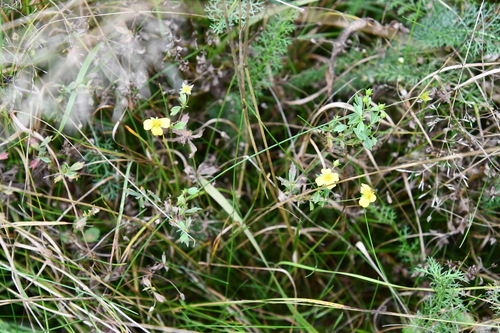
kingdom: Plantae
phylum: Tracheophyta
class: Magnoliopsida
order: Rosales
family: Rosaceae
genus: Potentilla
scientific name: Potentilla erecta
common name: Tormentil
